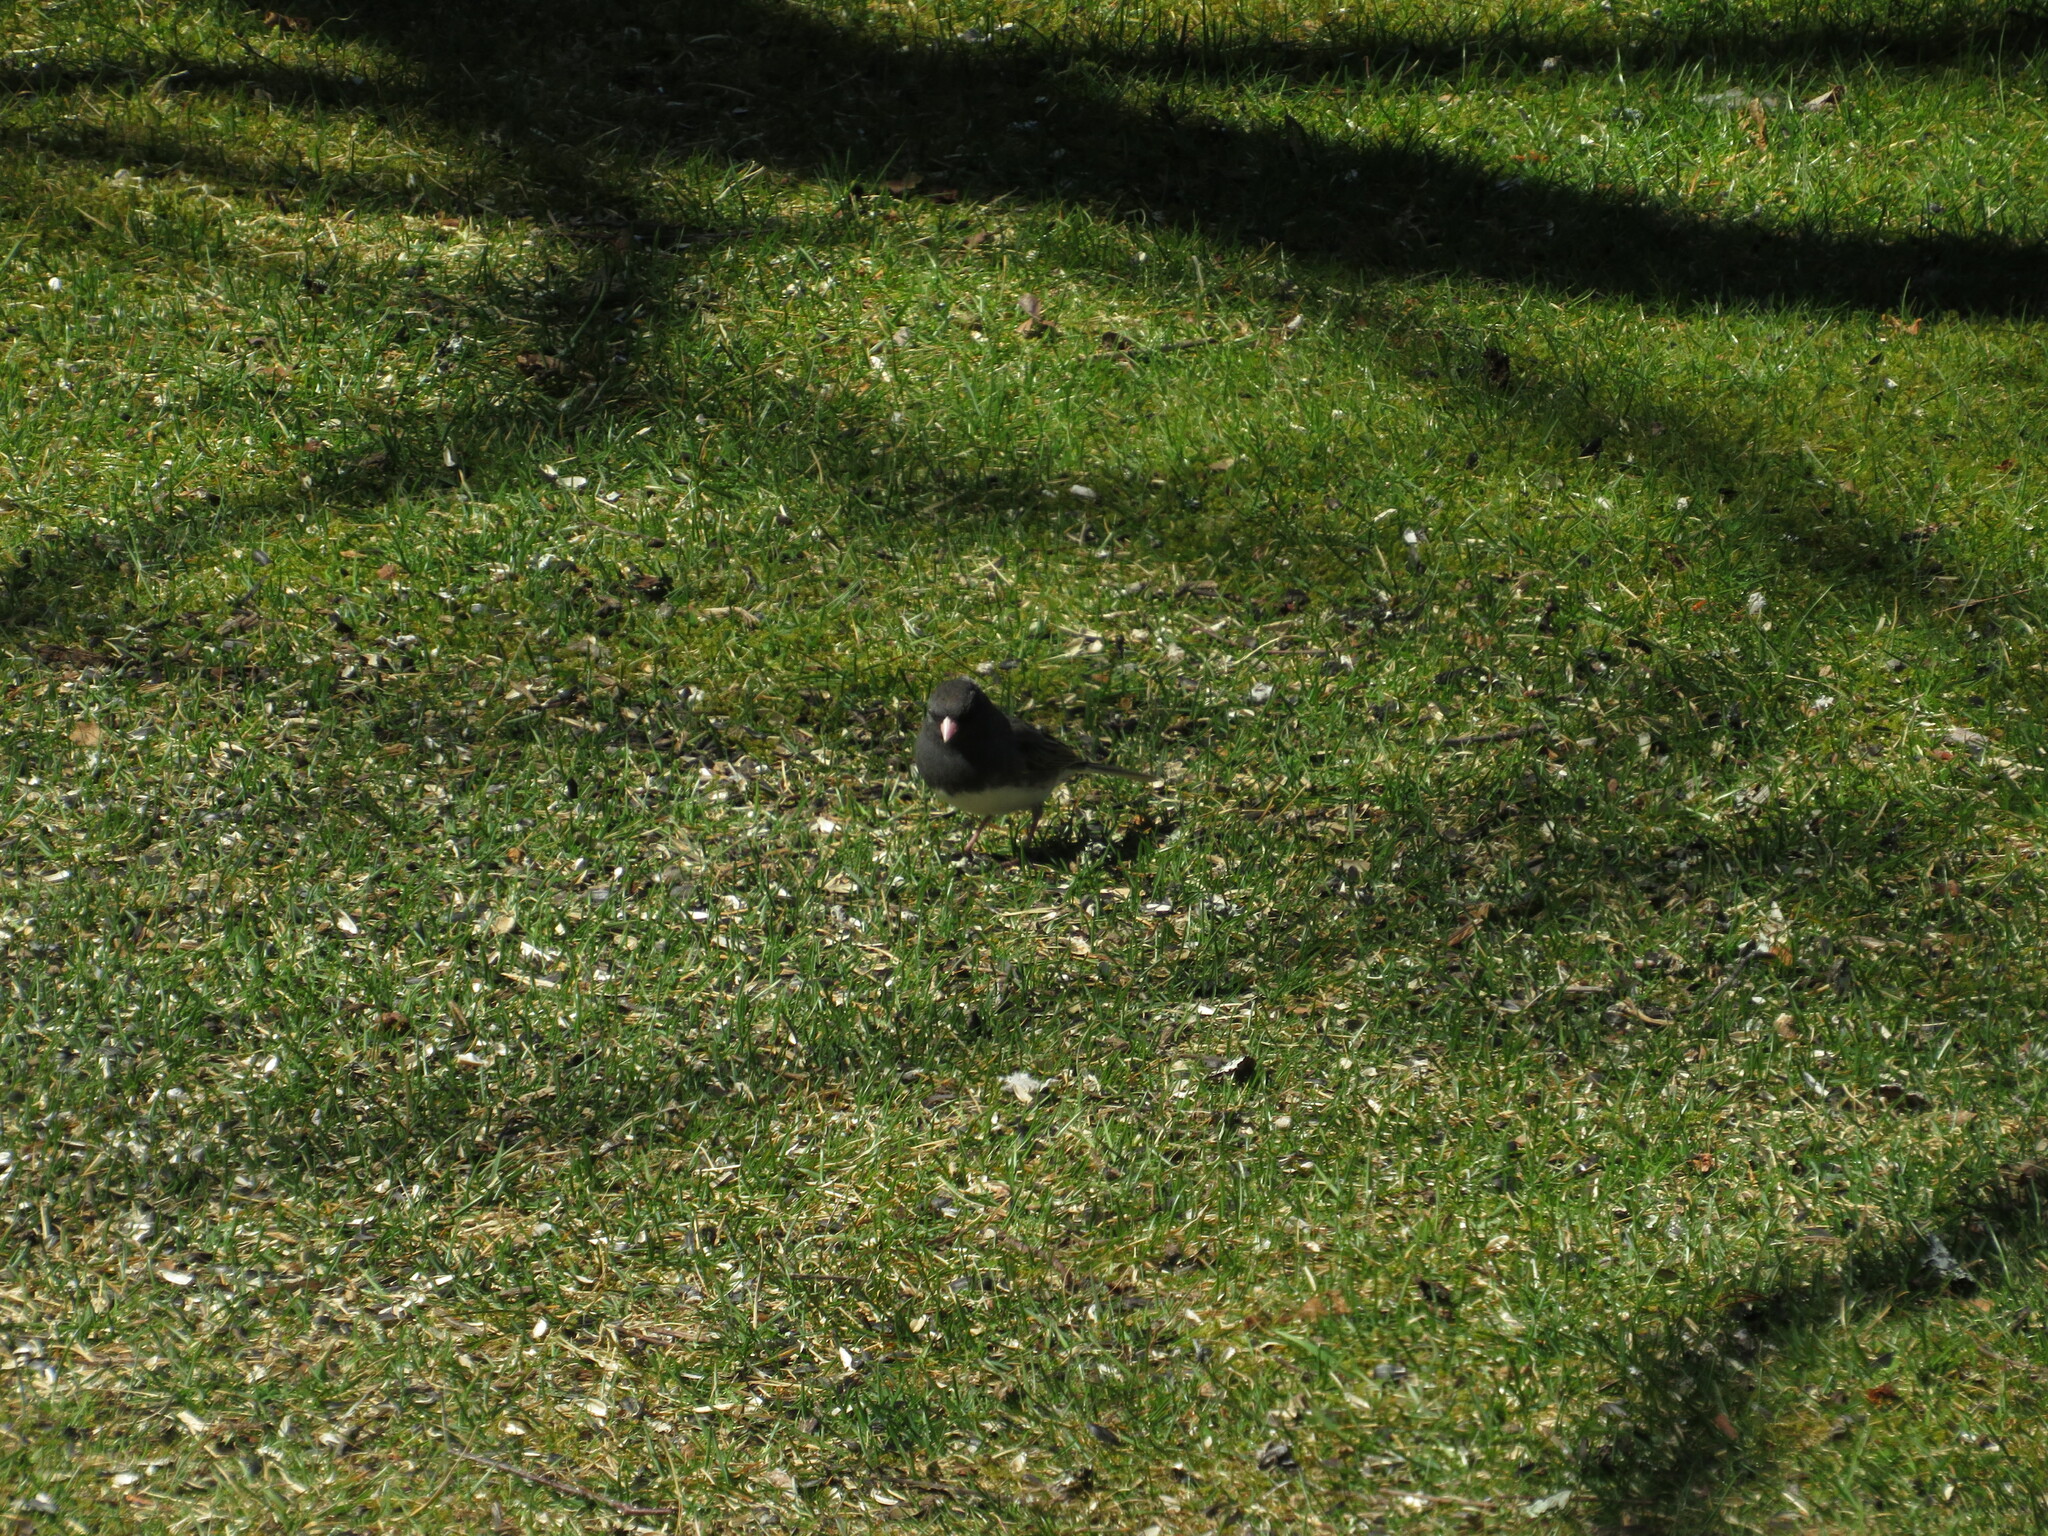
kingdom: Animalia
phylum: Chordata
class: Aves
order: Passeriformes
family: Passerellidae
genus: Junco
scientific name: Junco hyemalis
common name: Dark-eyed junco
